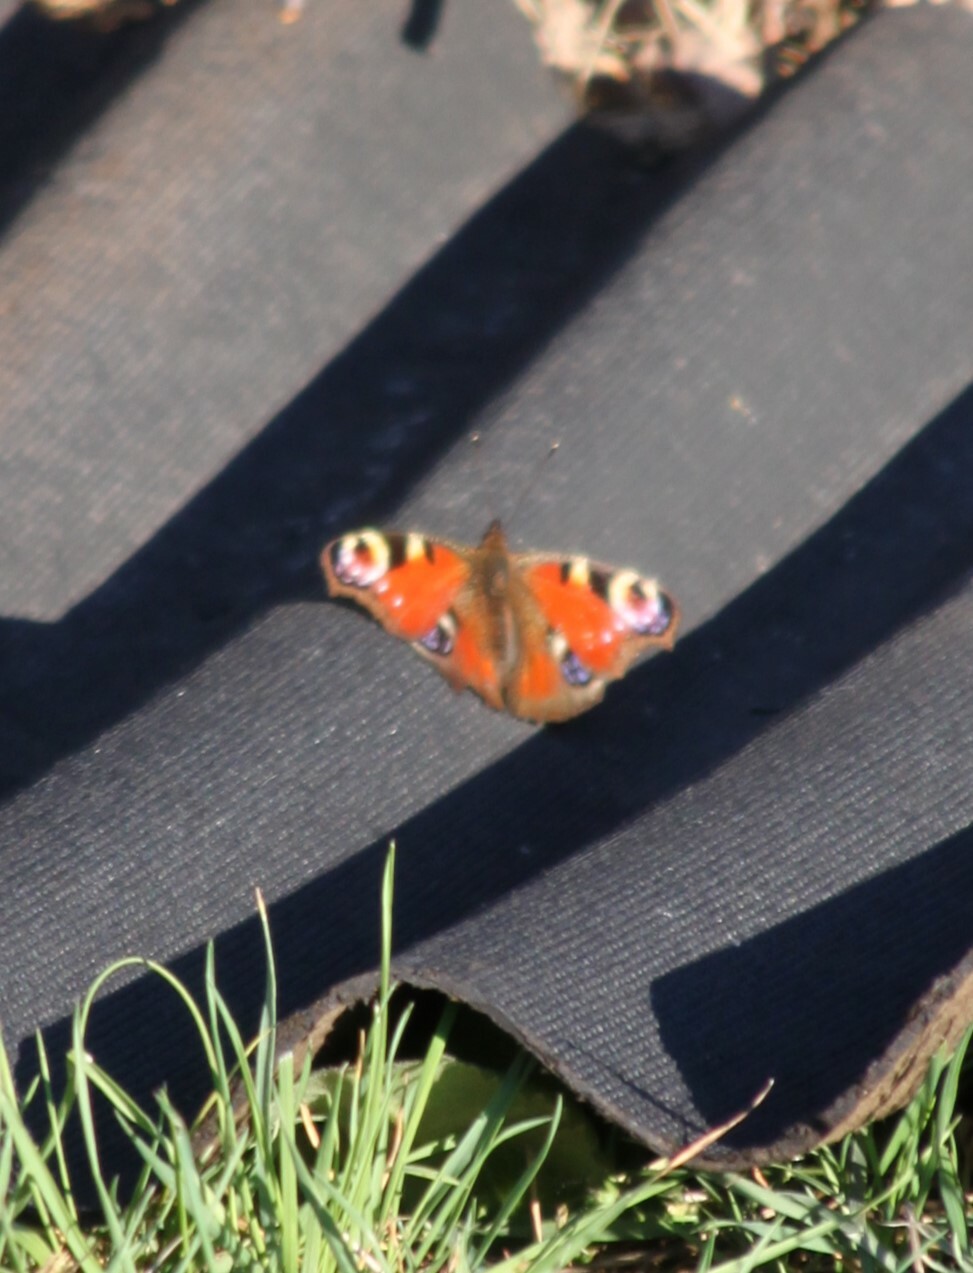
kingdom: Animalia
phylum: Arthropoda
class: Insecta
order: Lepidoptera
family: Nymphalidae
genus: Aglais
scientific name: Aglais io
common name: Peacock
